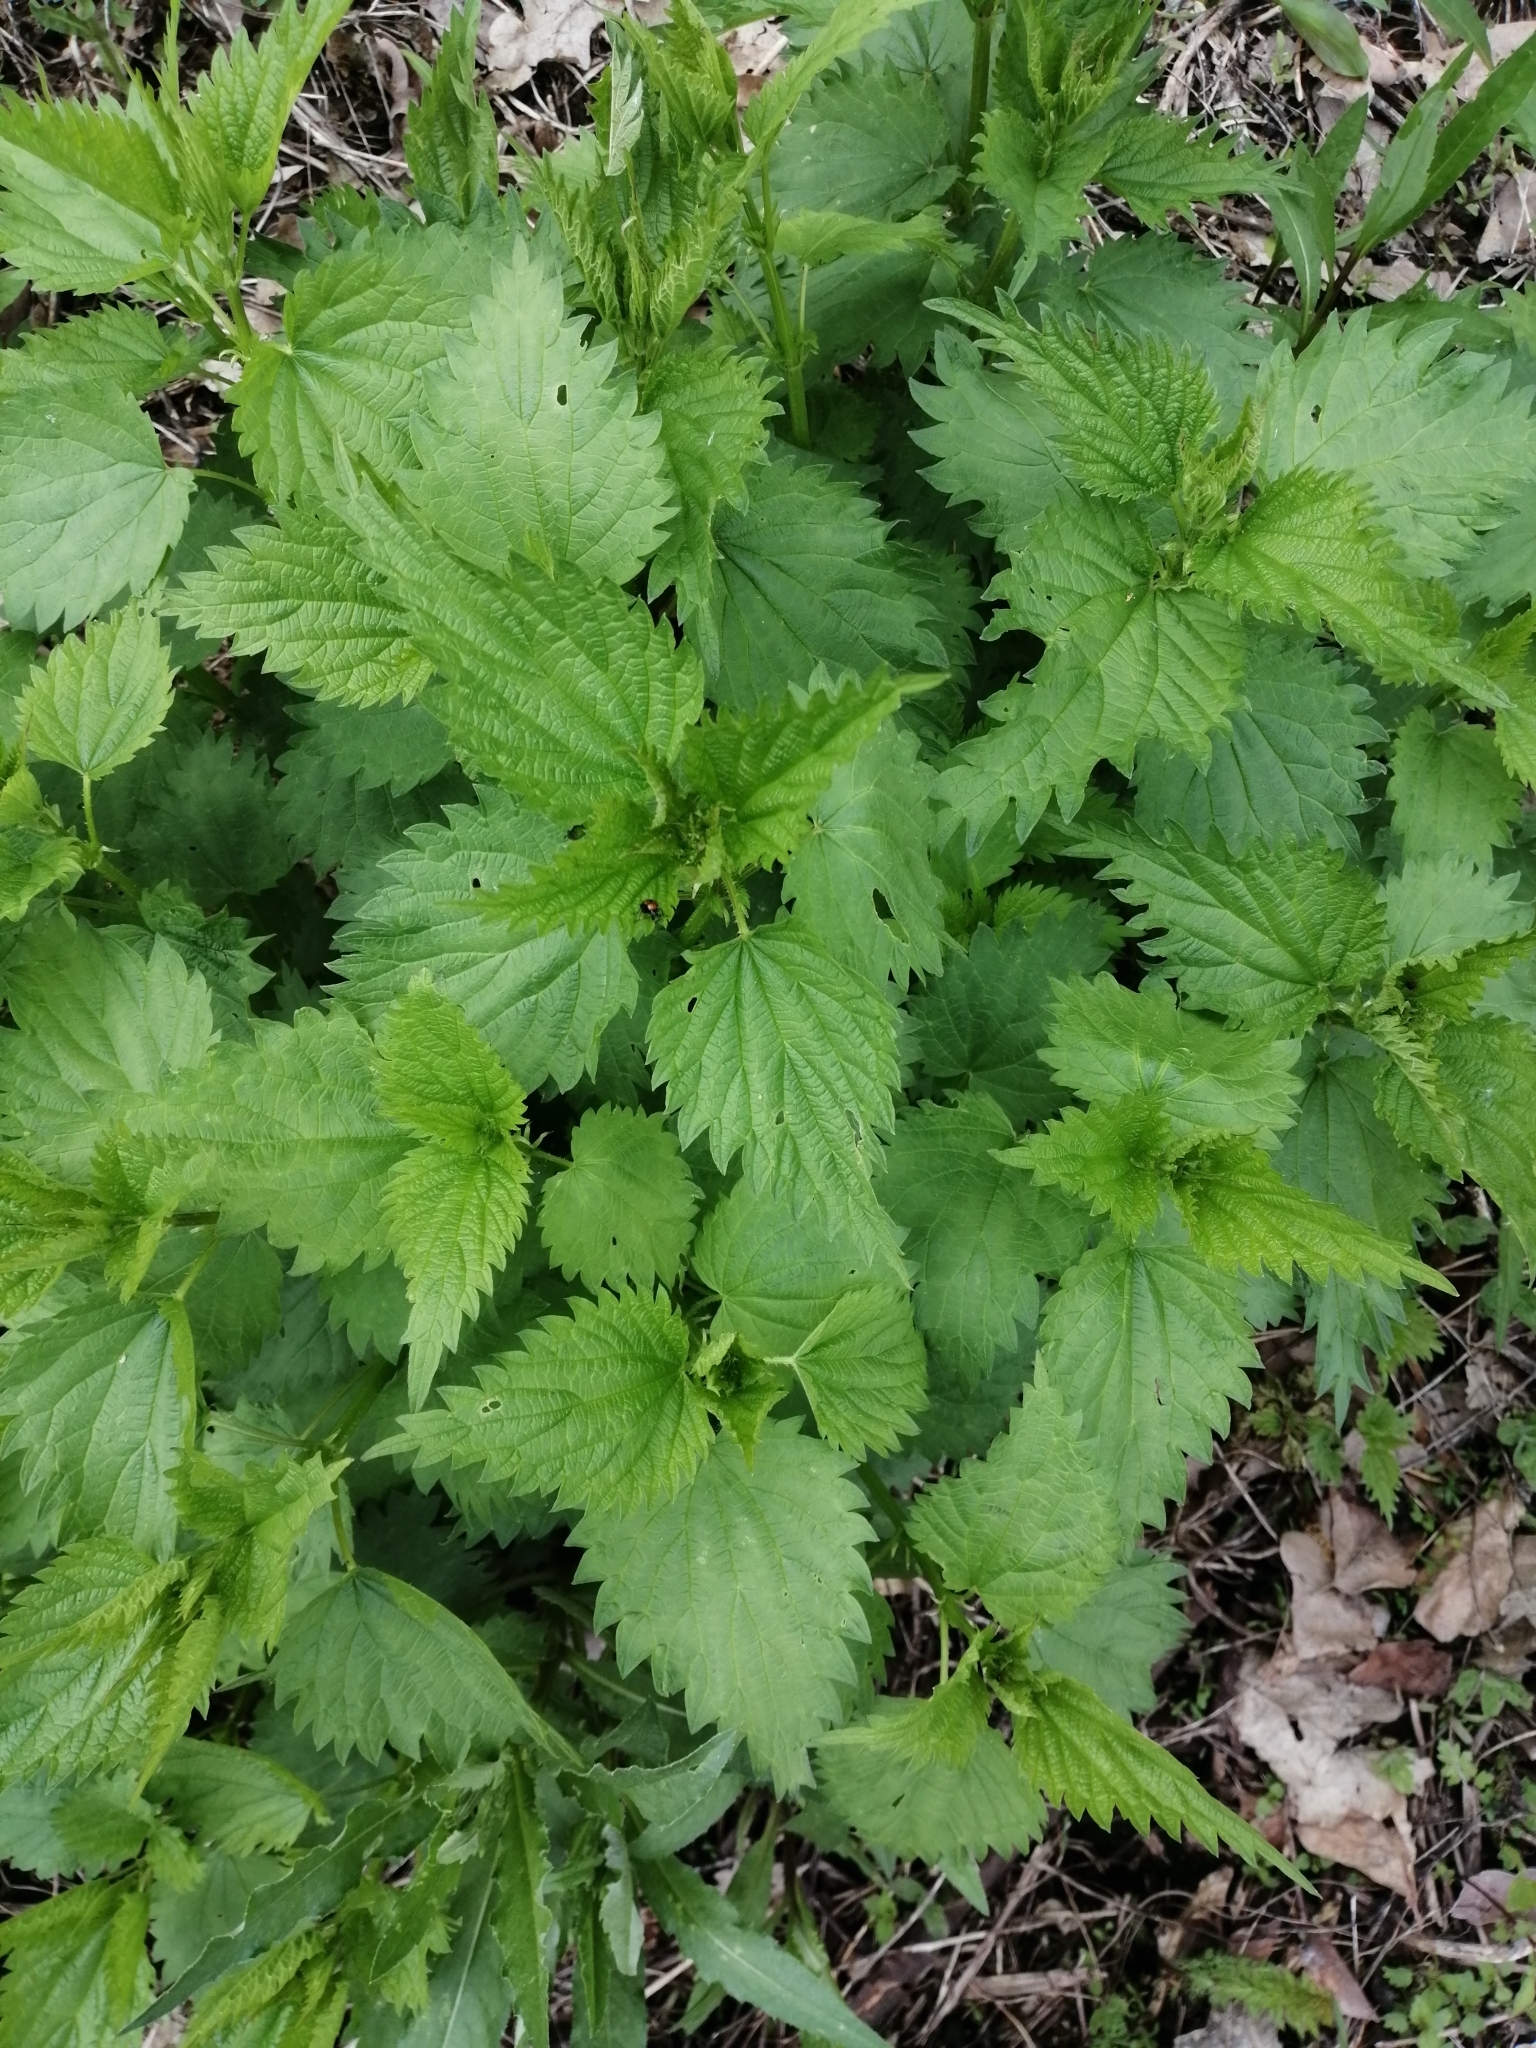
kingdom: Plantae
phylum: Tracheophyta
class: Magnoliopsida
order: Rosales
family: Urticaceae
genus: Urtica
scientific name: Urtica dioica
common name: Common nettle
